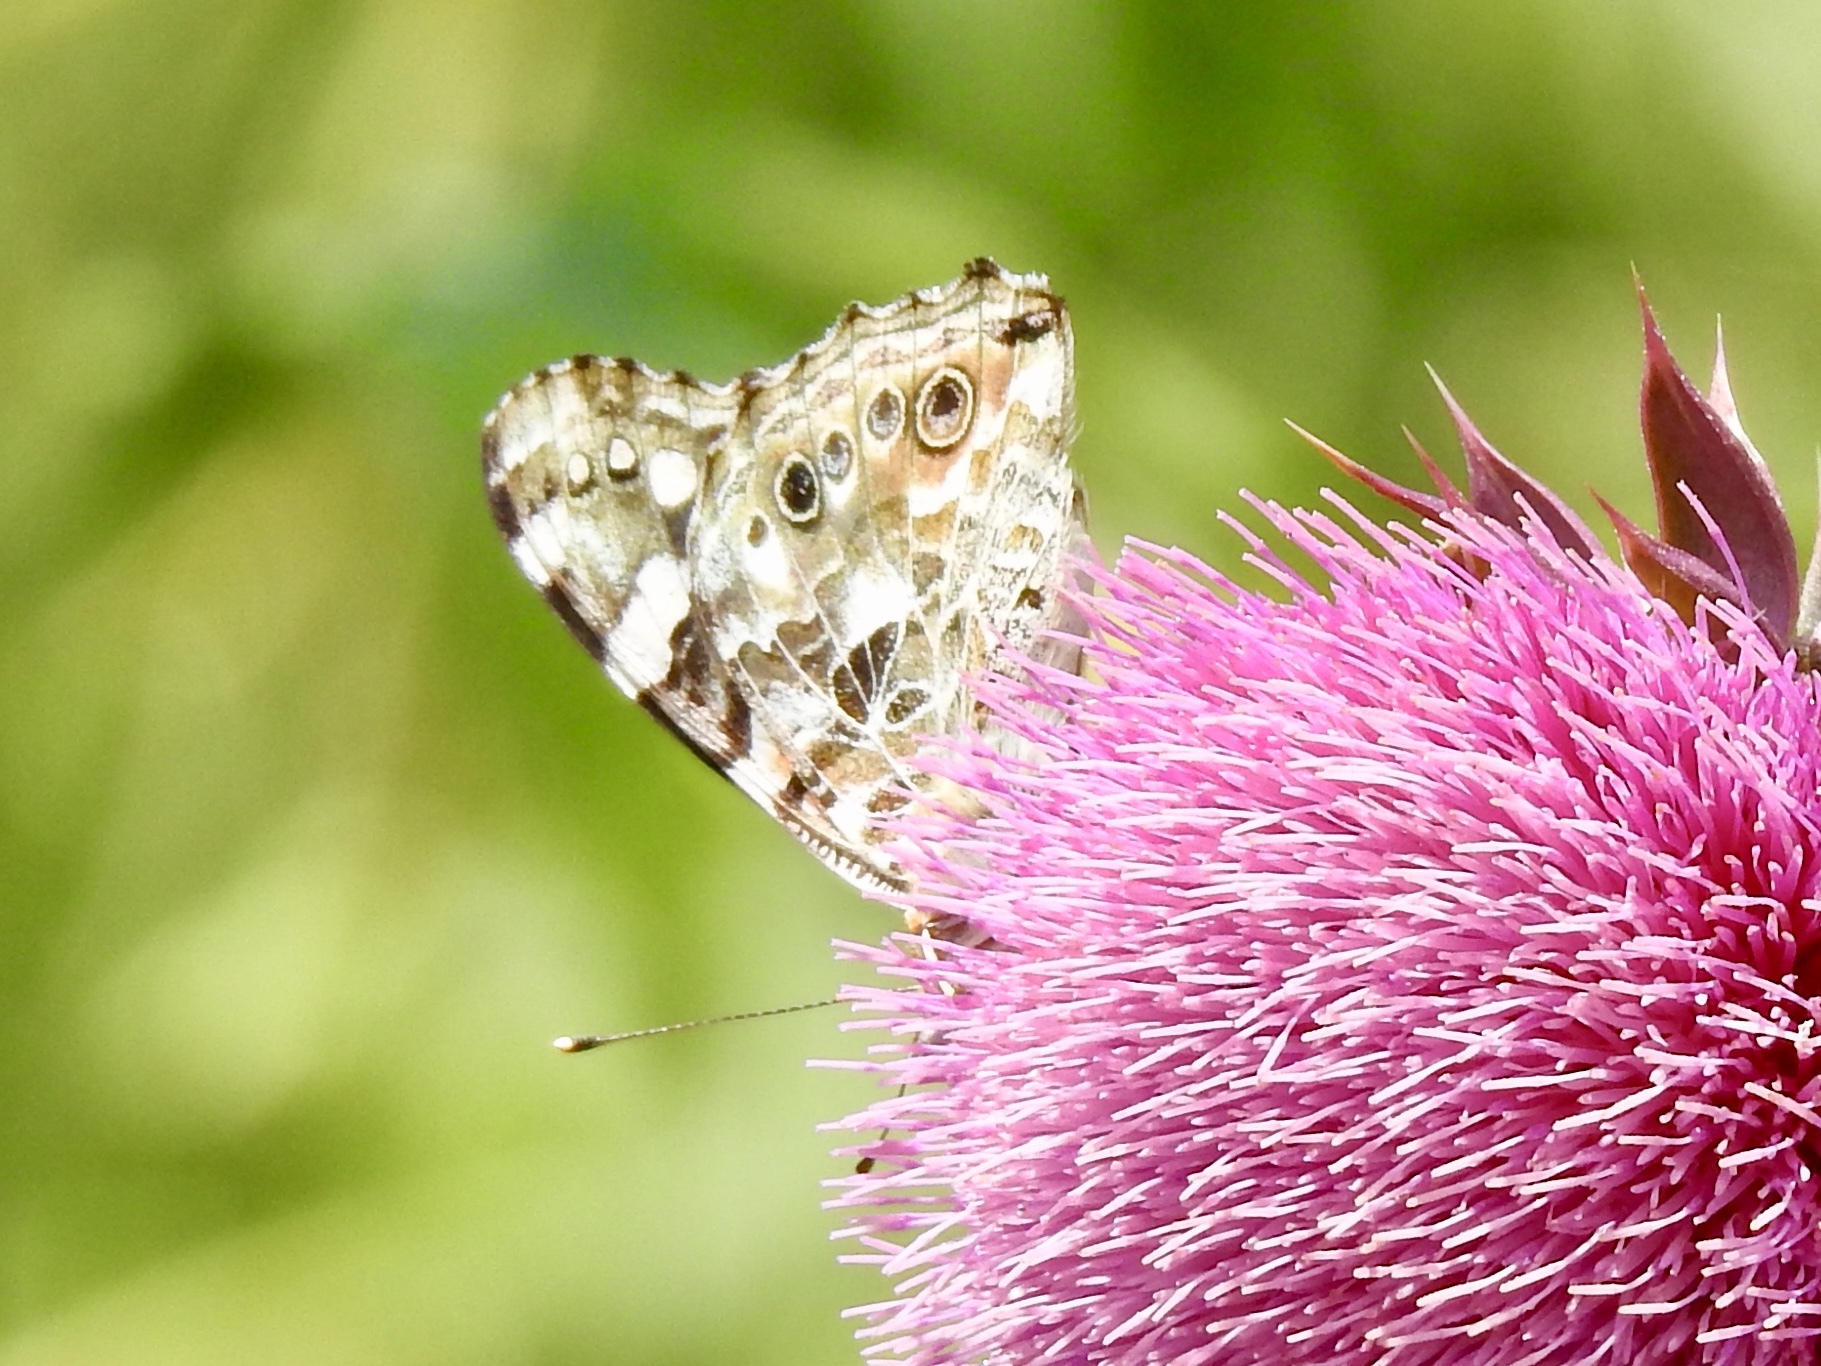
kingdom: Animalia
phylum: Arthropoda
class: Insecta
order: Lepidoptera
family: Nymphalidae
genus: Vanessa
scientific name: Vanessa cardui
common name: Painted lady
